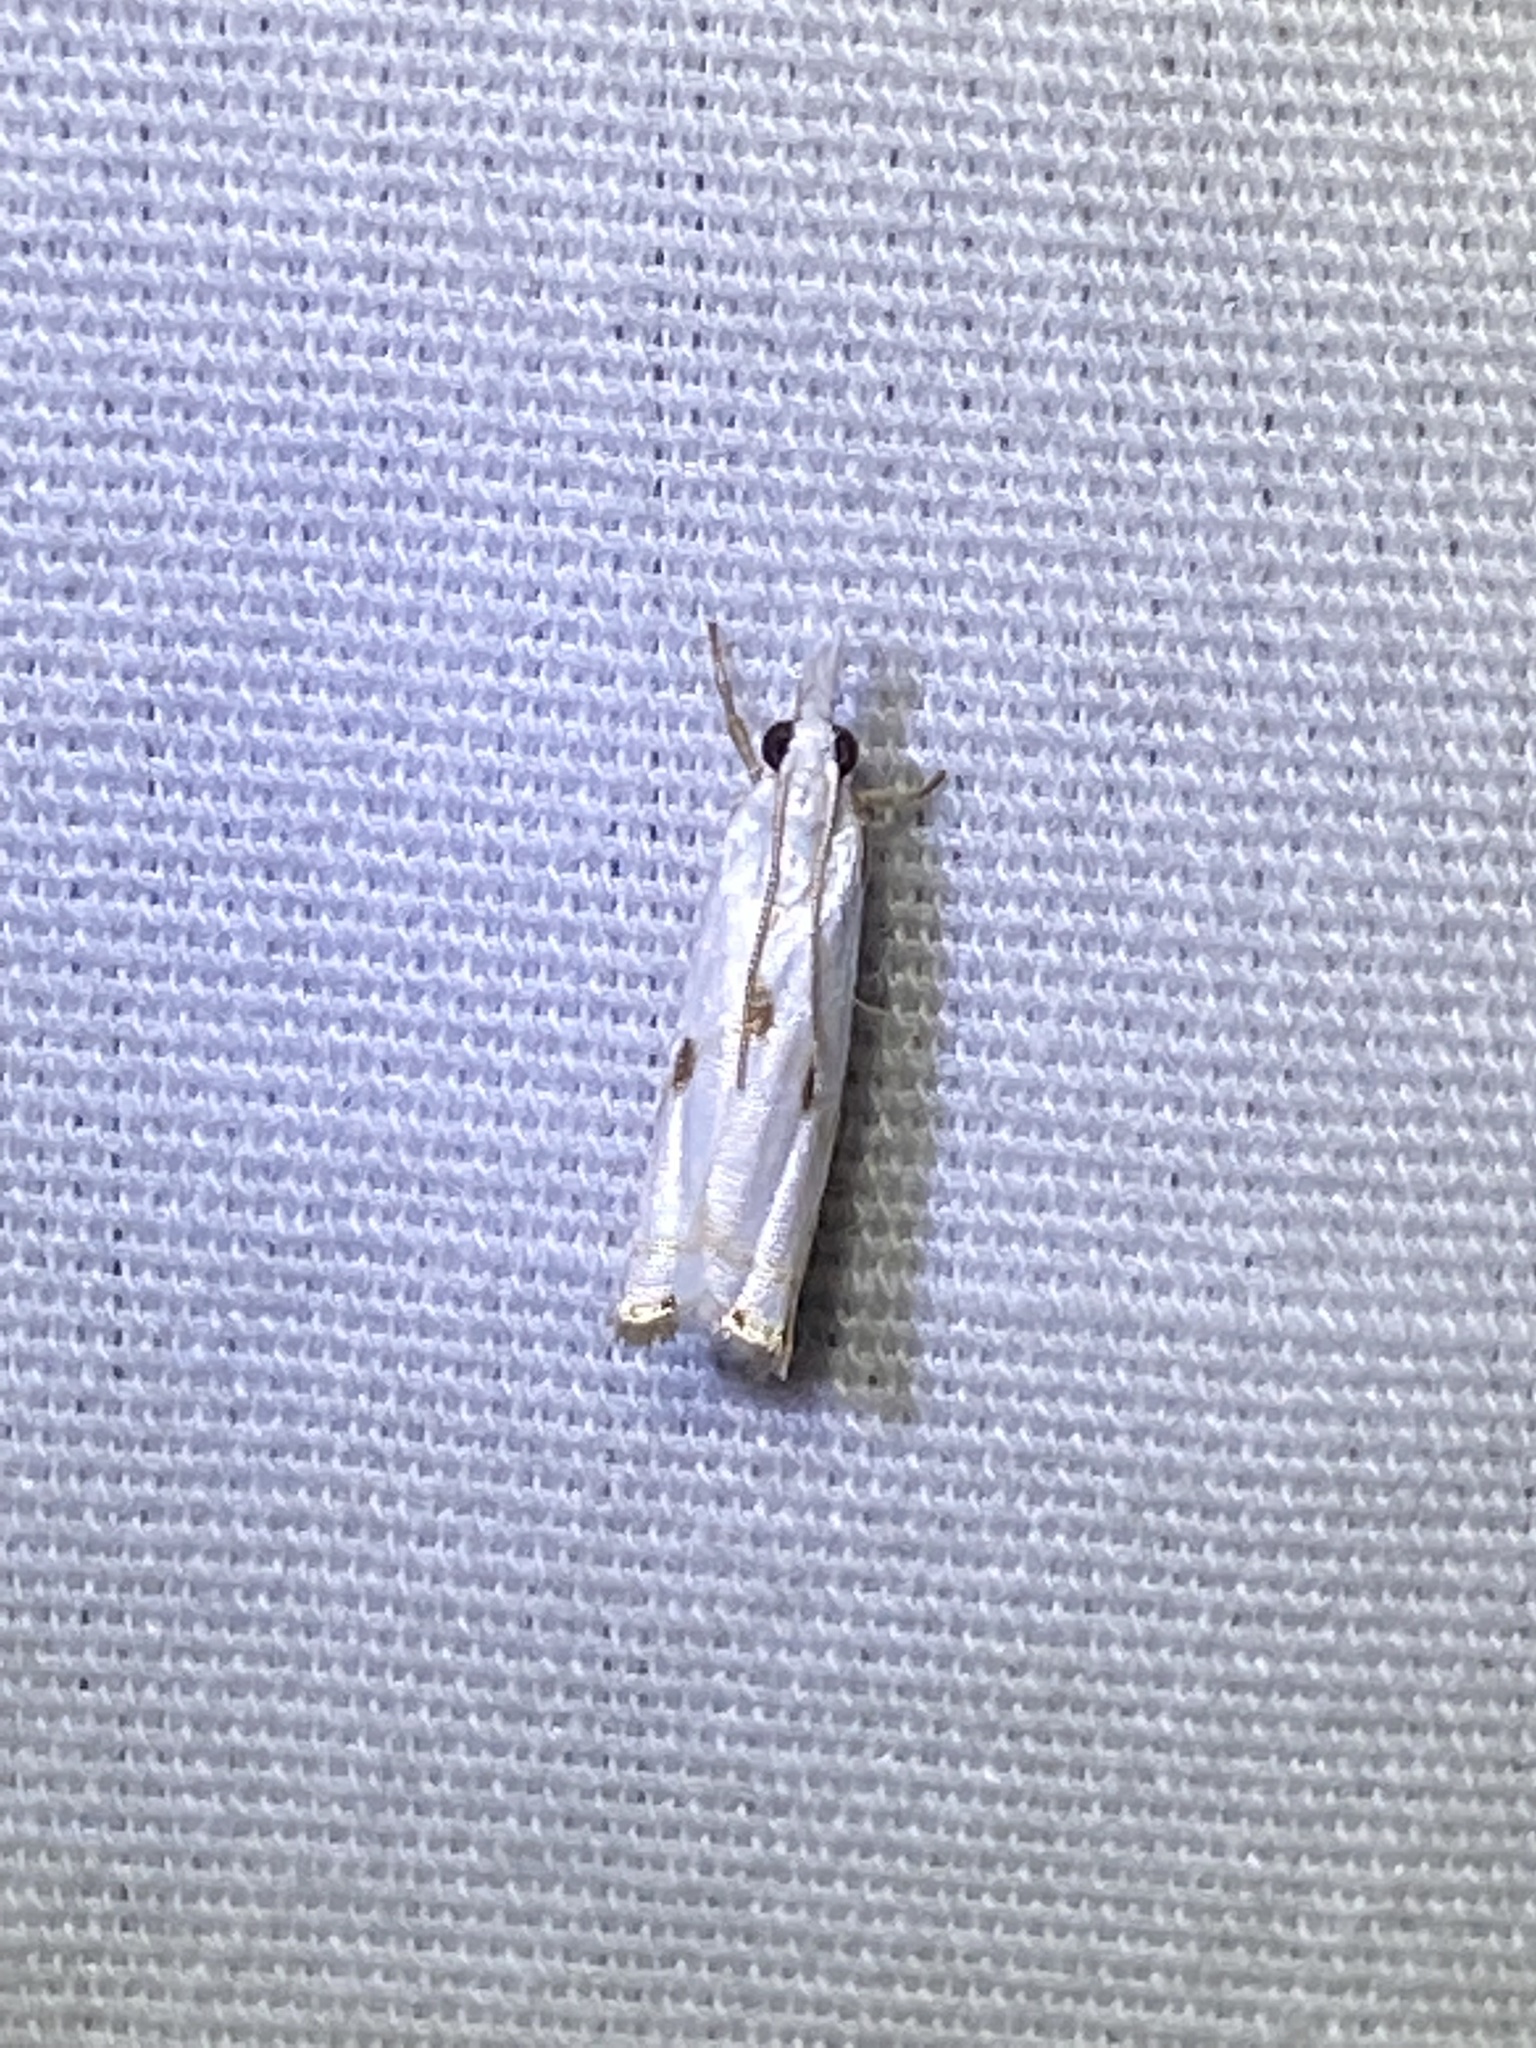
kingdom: Animalia
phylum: Arthropoda
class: Insecta
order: Lepidoptera
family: Crambidae
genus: Microcrambus
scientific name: Microcrambus biguttellus
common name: Gold-stripe grass-veneer moth
